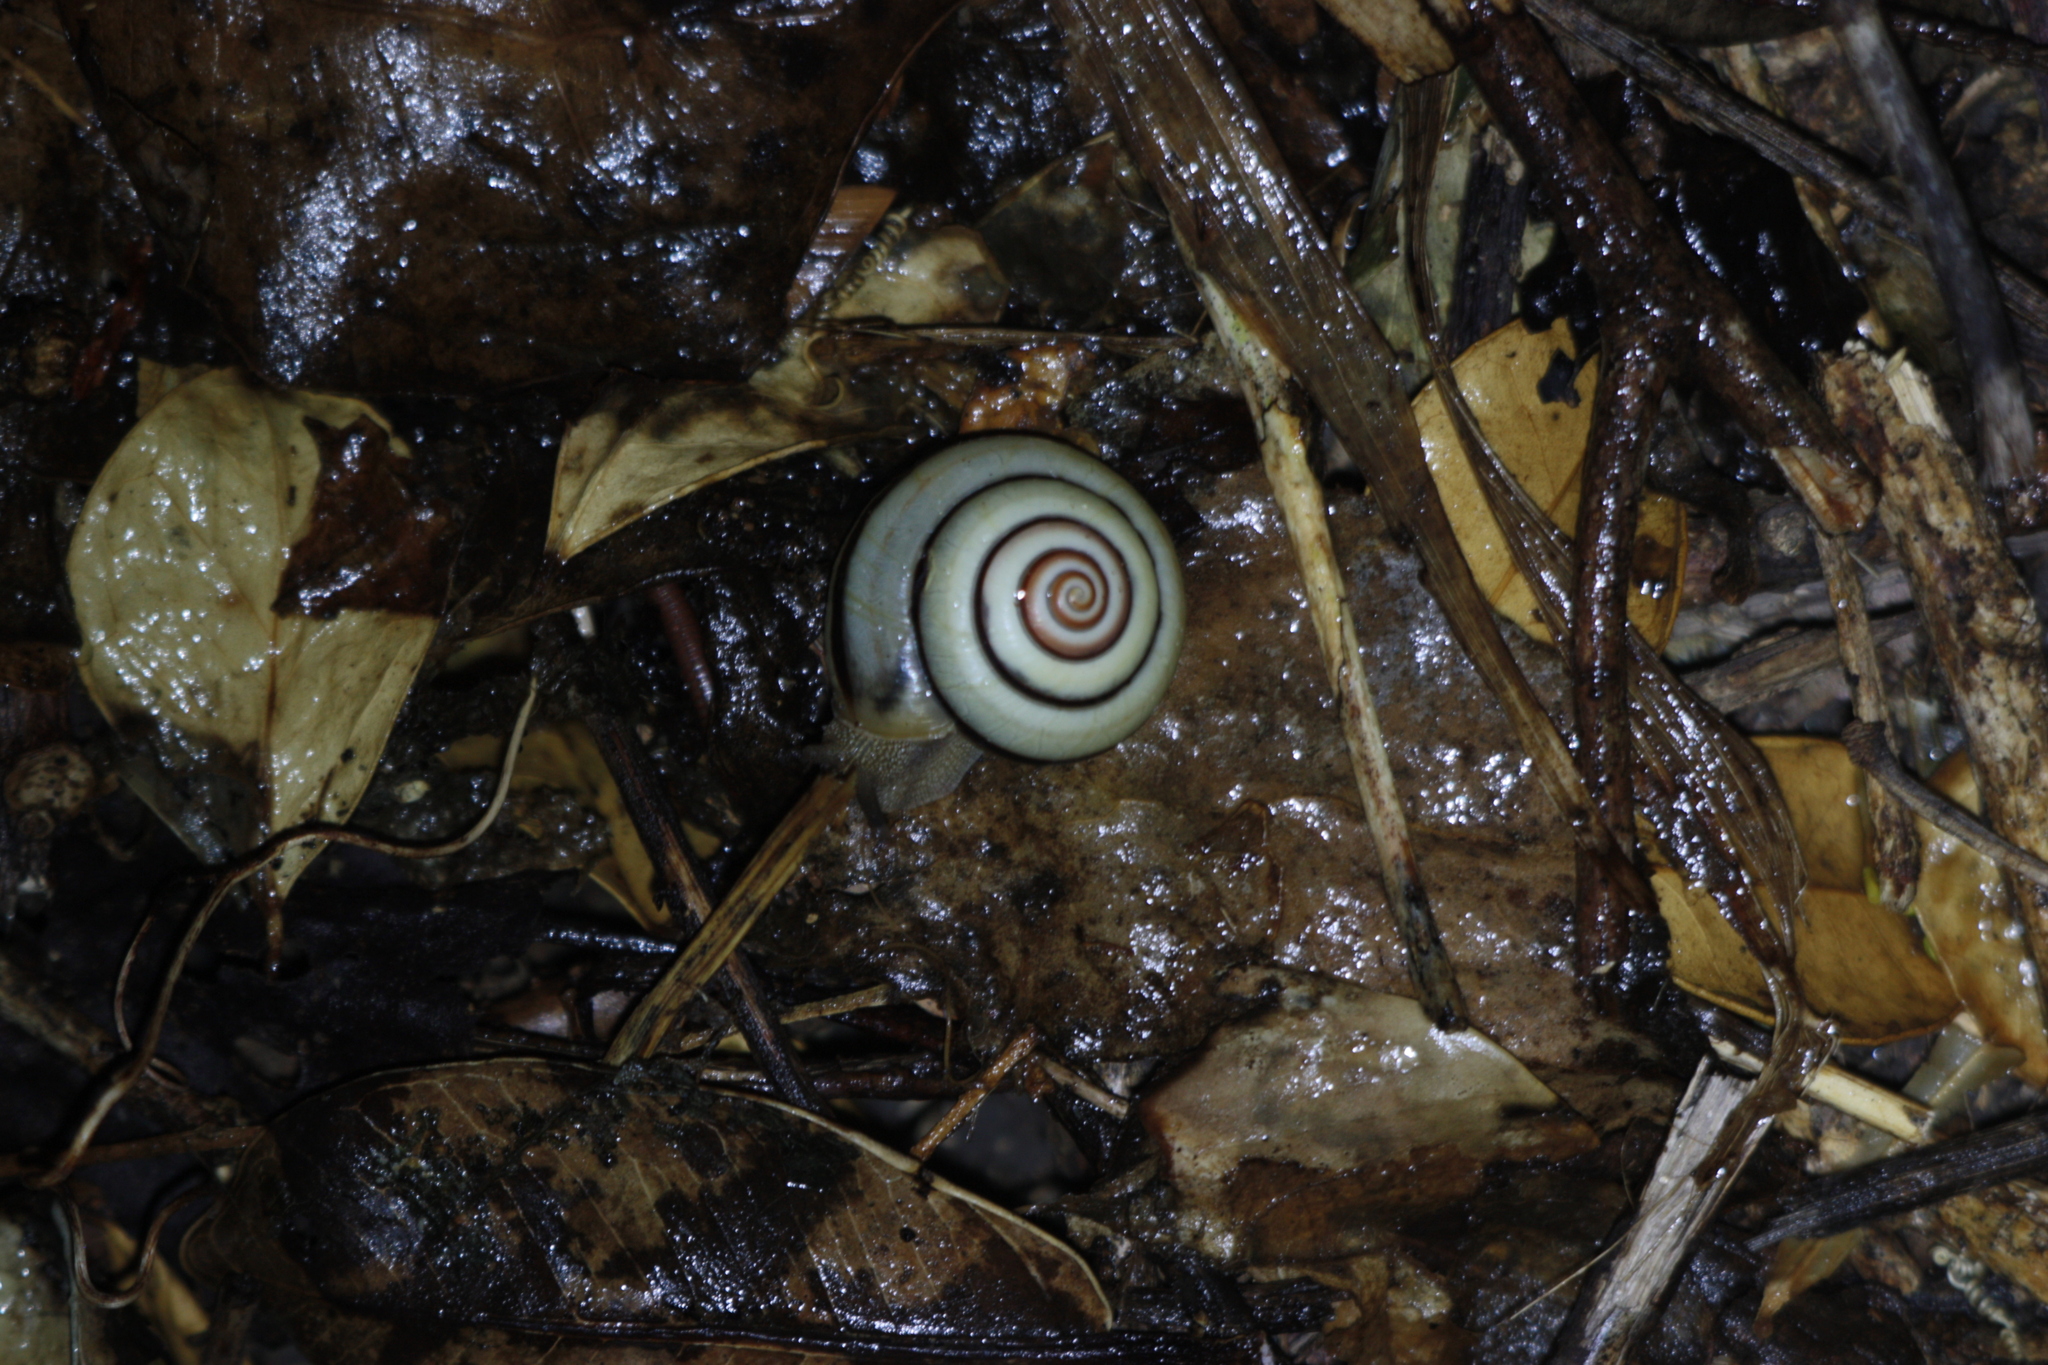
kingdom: Animalia
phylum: Mollusca
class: Gastropoda
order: Stylommatophora
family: Camaenidae
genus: Pancala
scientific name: Pancala batanica
